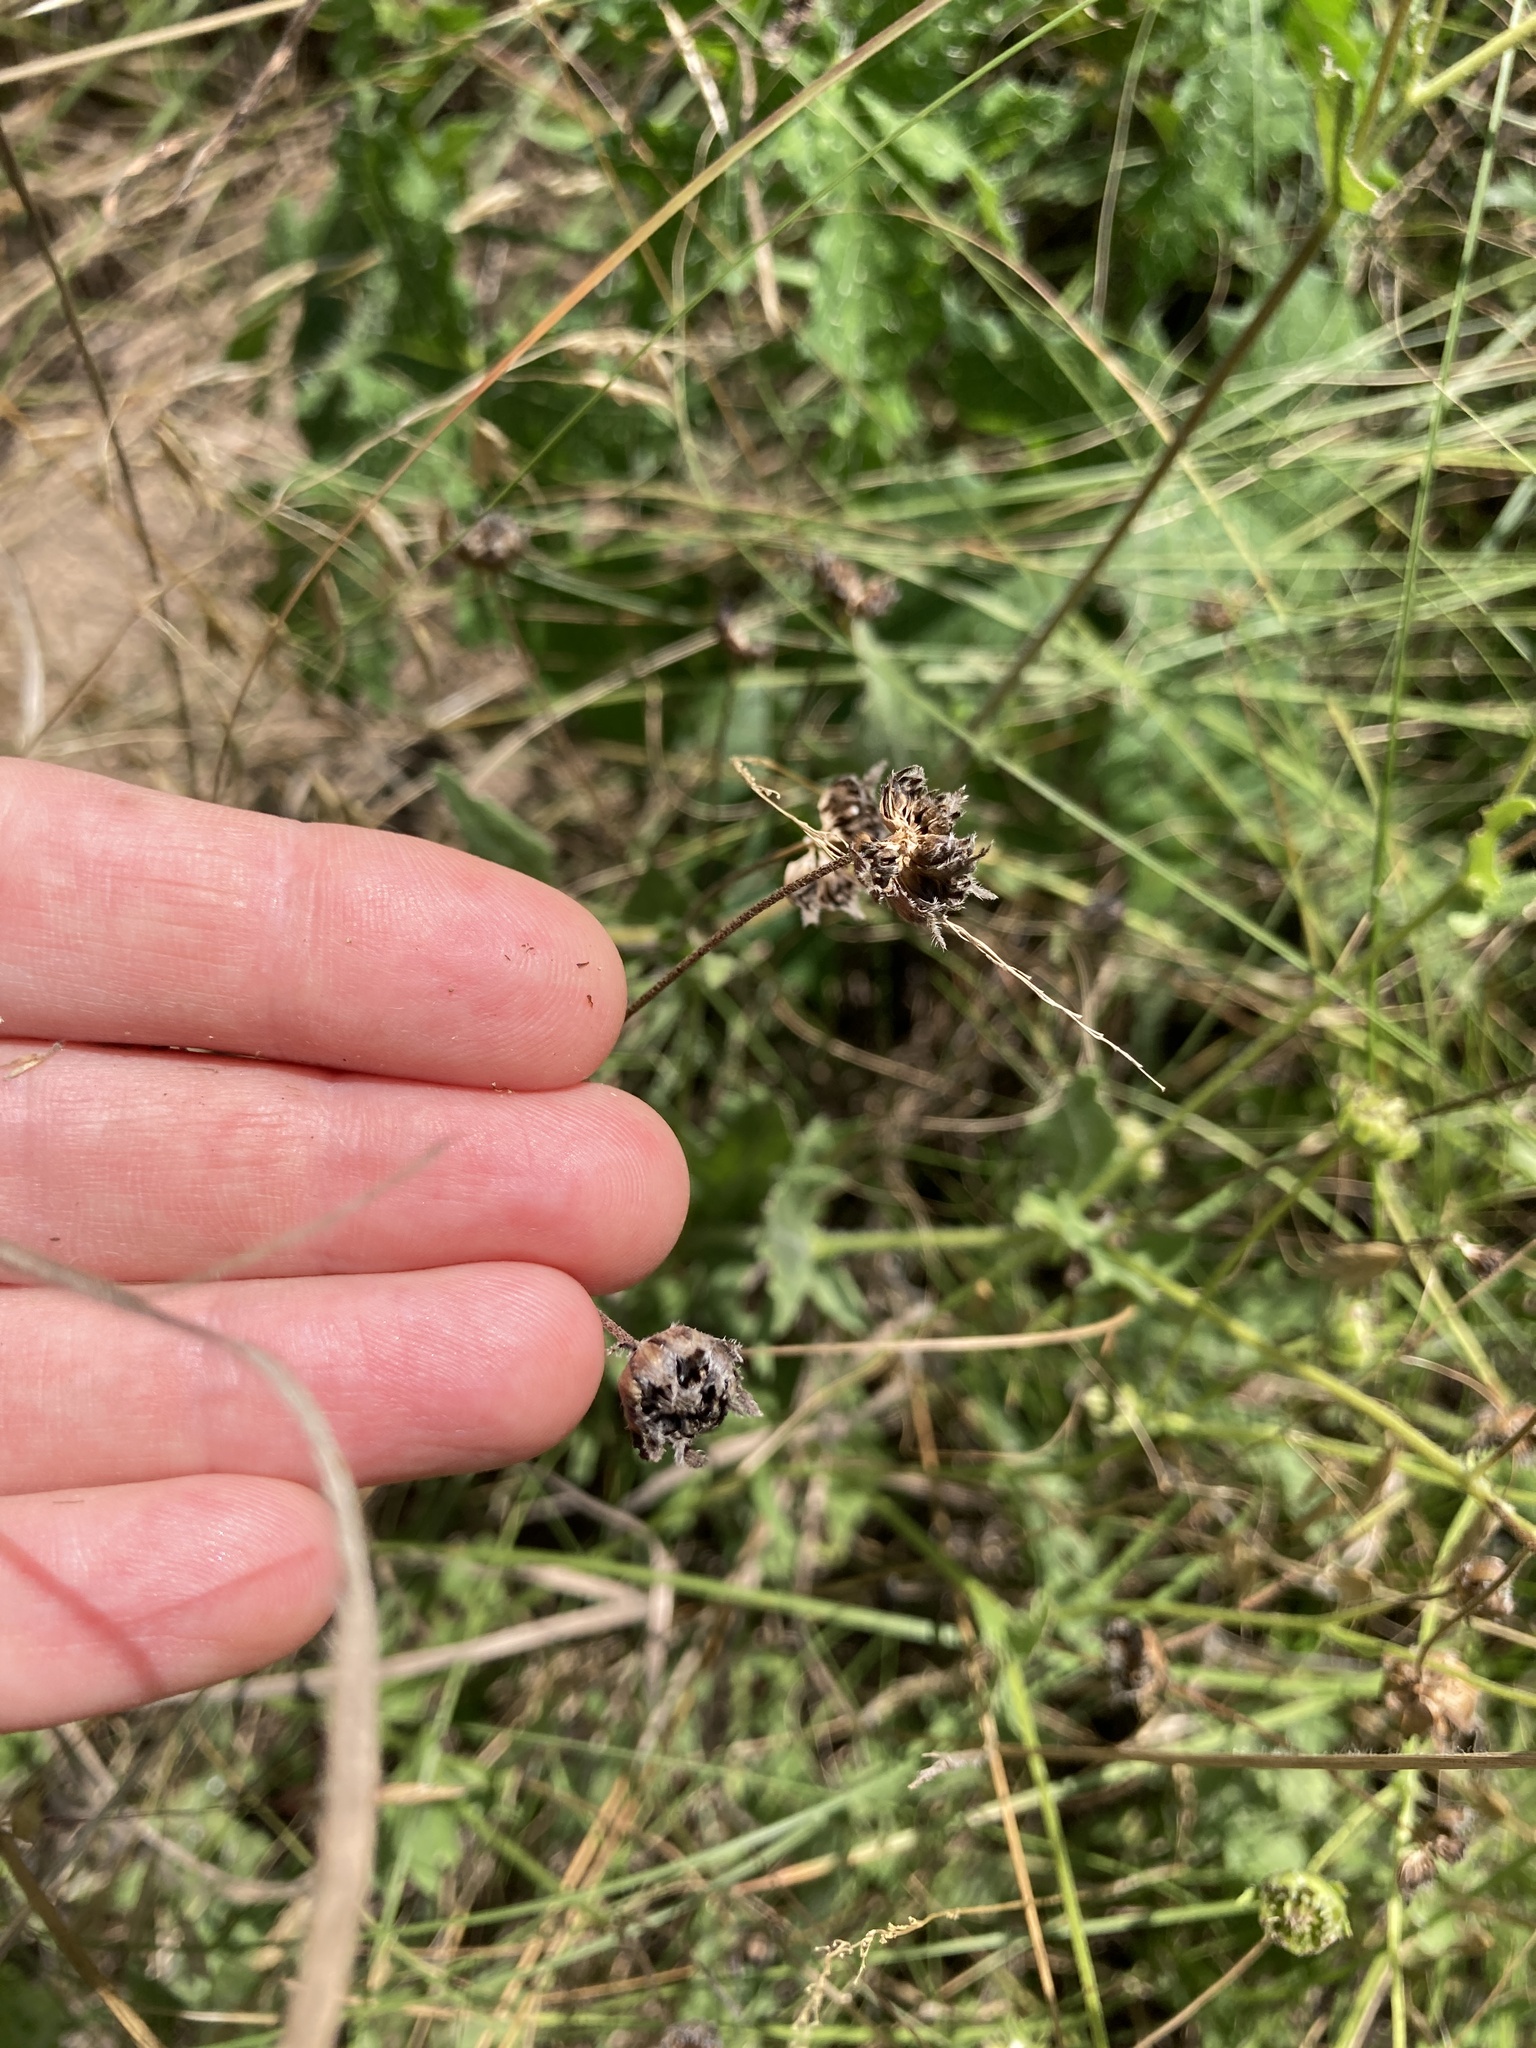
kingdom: Plantae
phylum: Tracheophyta
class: Magnoliopsida
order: Asterales
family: Asteraceae
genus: Engelmannia
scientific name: Engelmannia peristenia
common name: Engelmann's daisy
